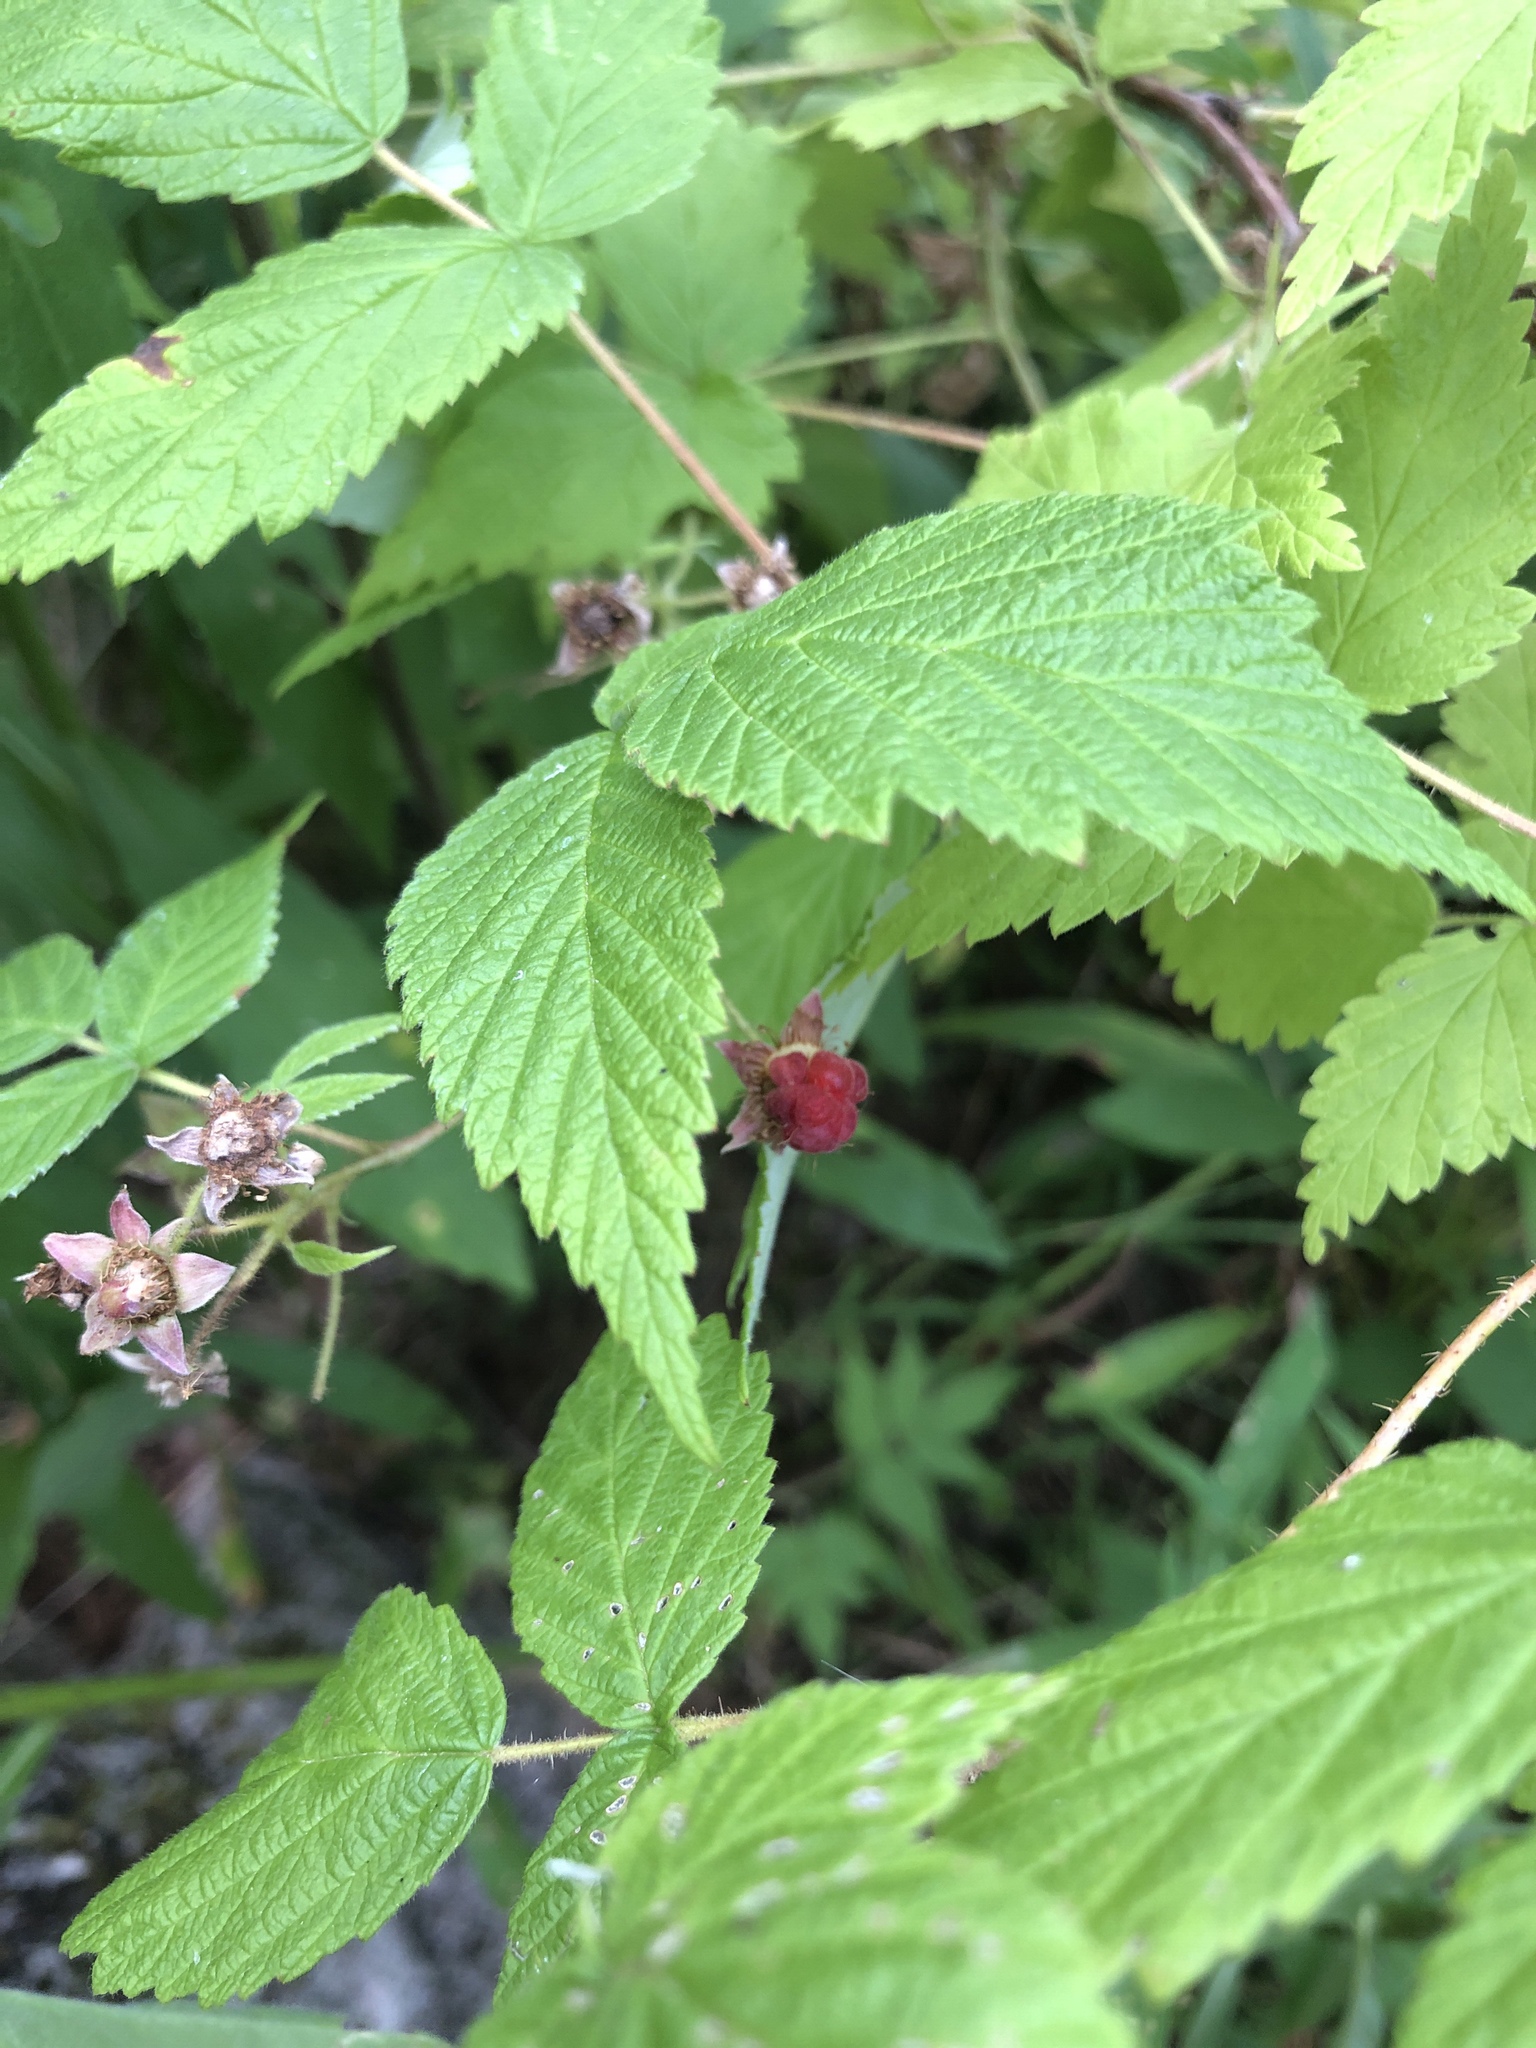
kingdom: Plantae
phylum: Tracheophyta
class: Magnoliopsida
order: Rosales
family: Rosaceae
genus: Rubus
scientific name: Rubus idaeus
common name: Raspberry
